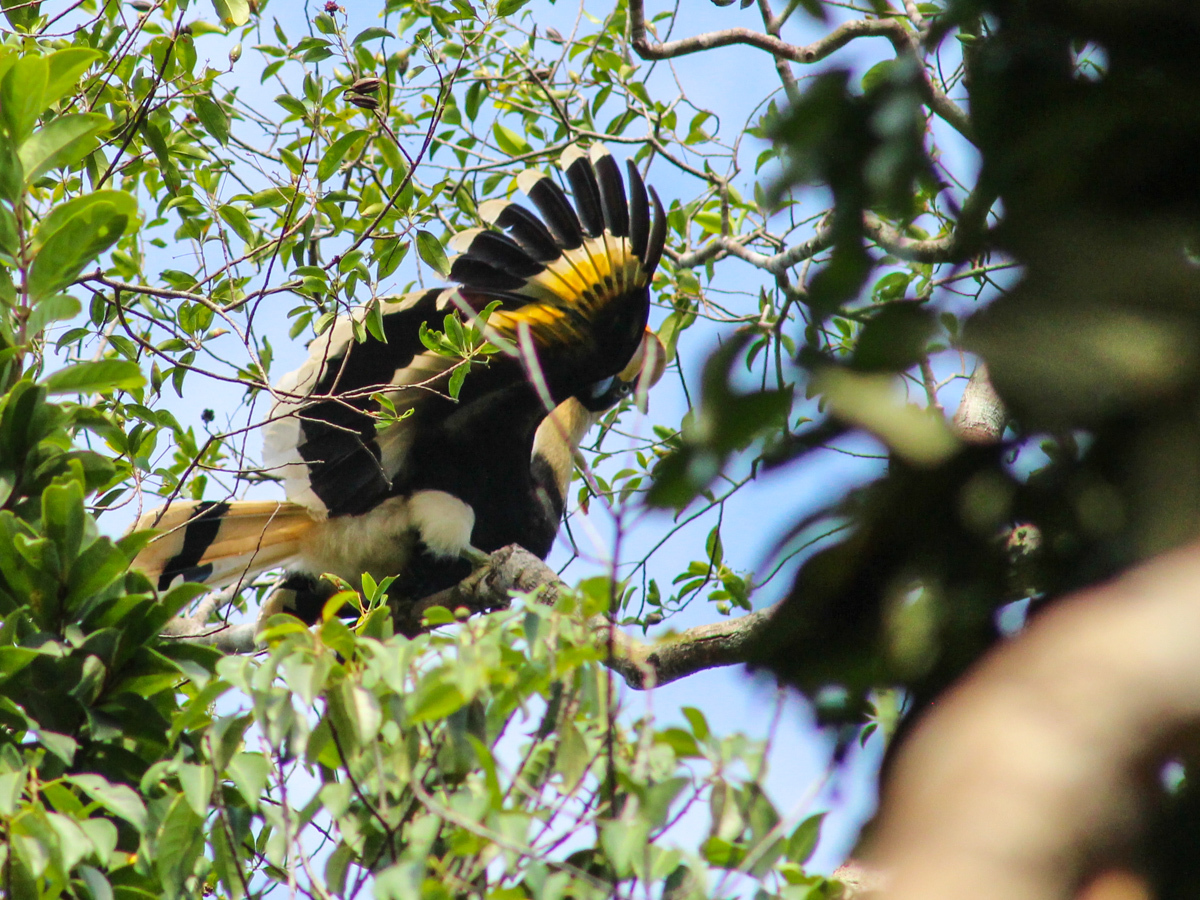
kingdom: Animalia
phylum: Chordata
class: Aves
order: Bucerotiformes
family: Bucerotidae
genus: Buceros
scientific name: Buceros bicornis
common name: Great hornbill
